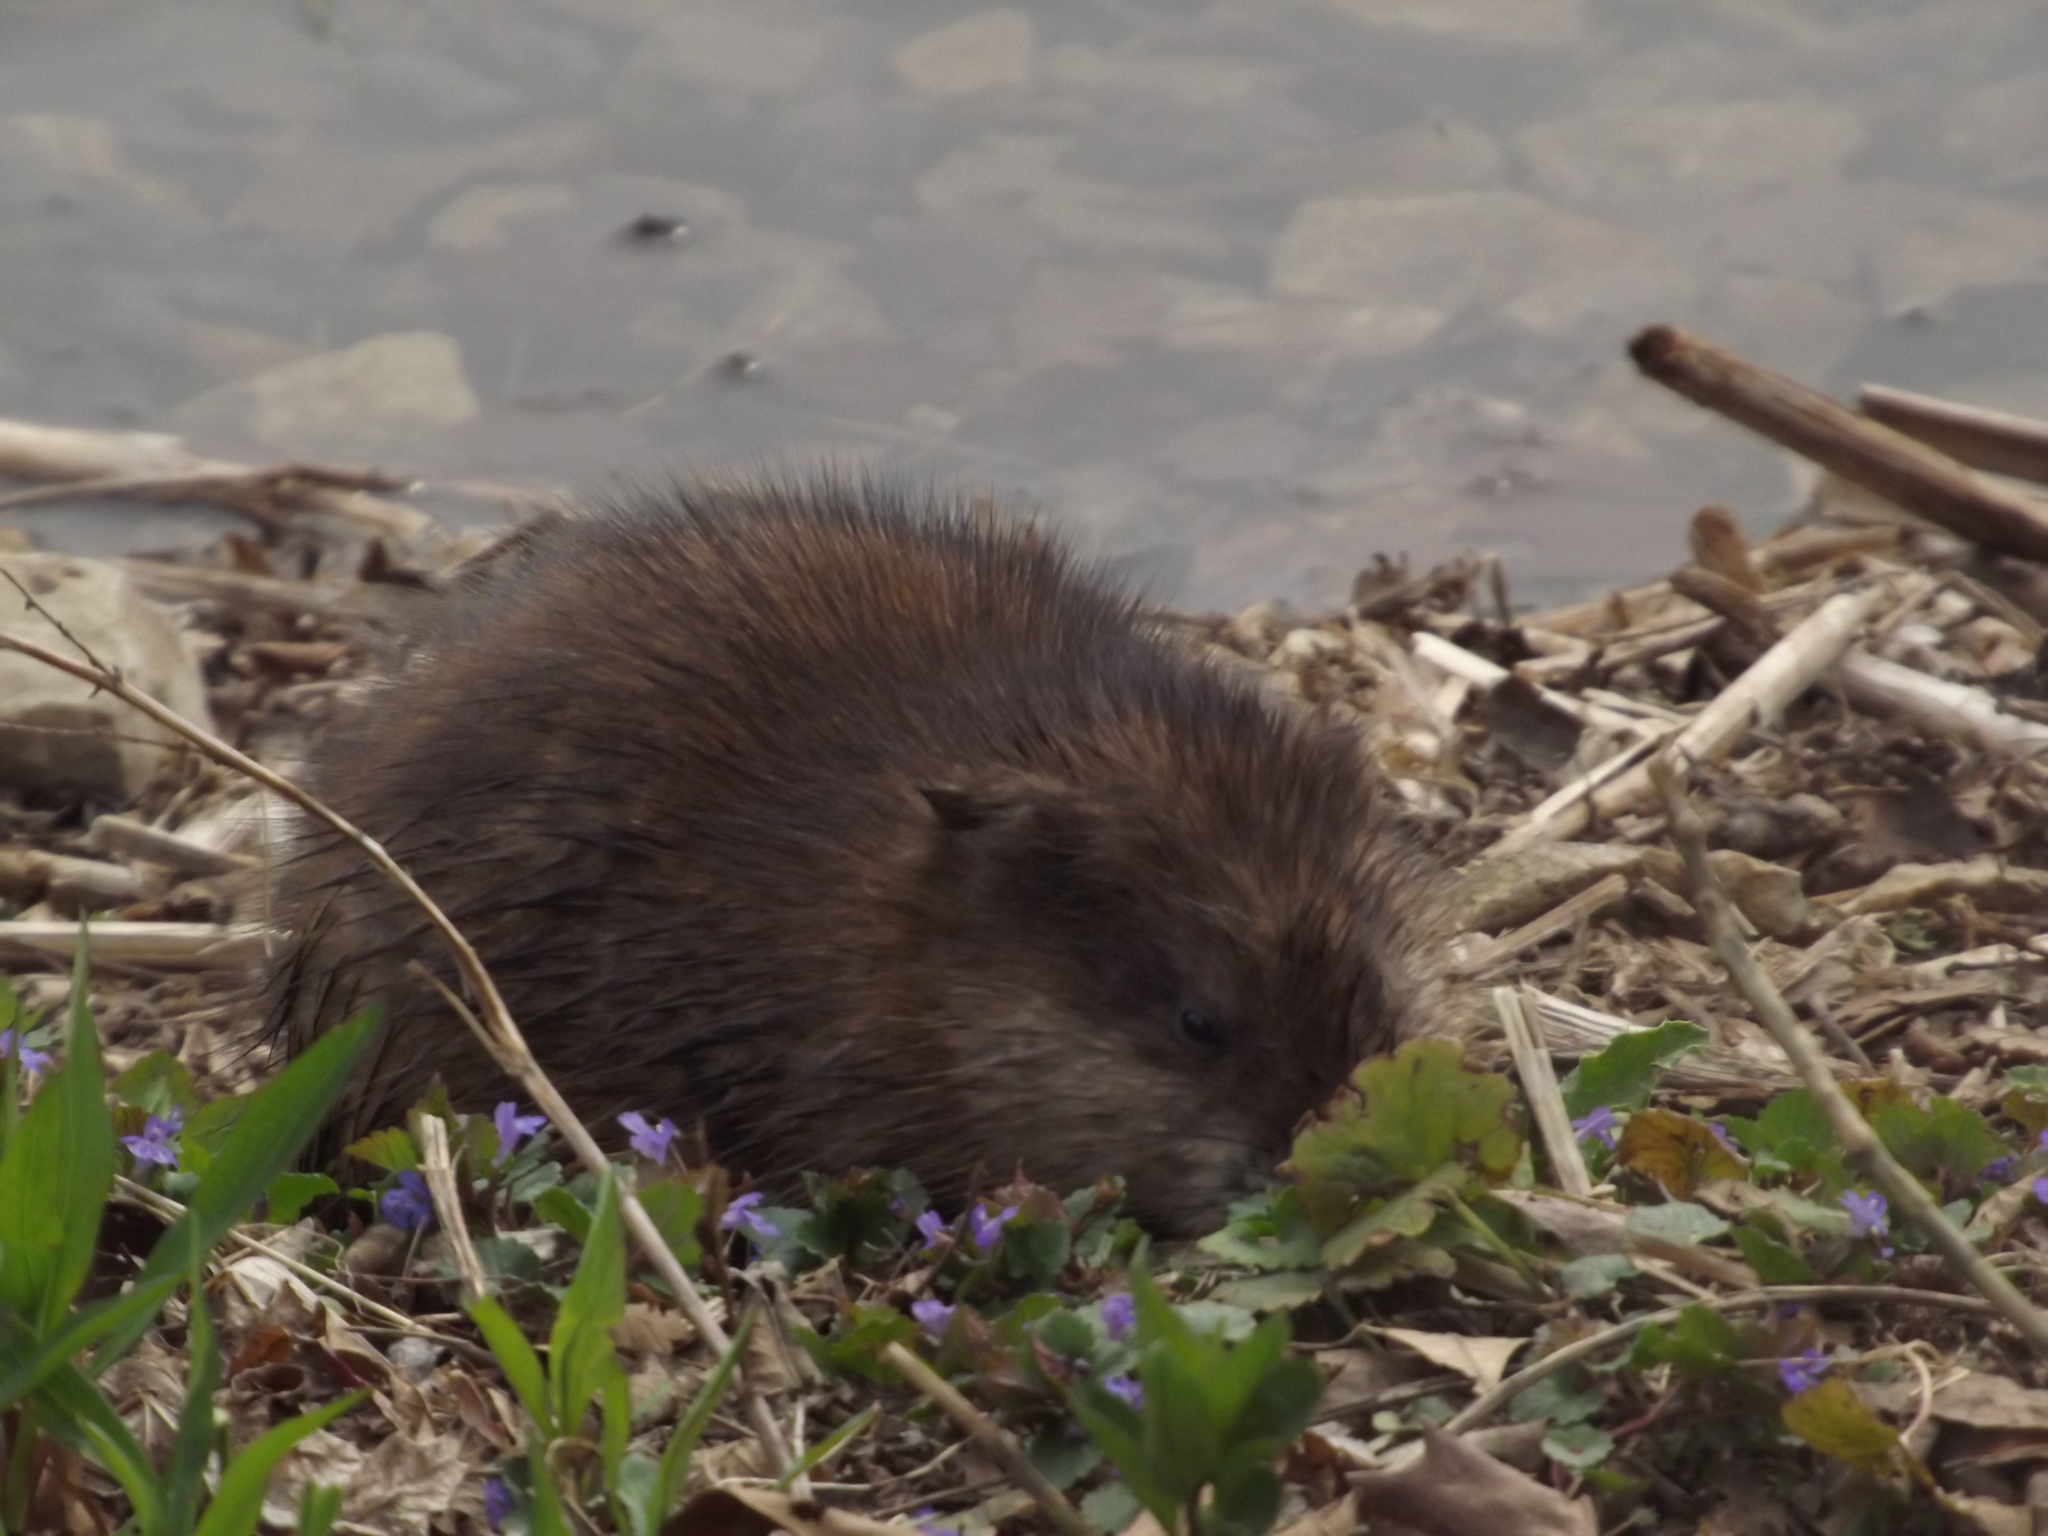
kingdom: Animalia
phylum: Chordata
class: Mammalia
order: Rodentia
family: Cricetidae
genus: Ondatra
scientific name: Ondatra zibethicus
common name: Muskrat
